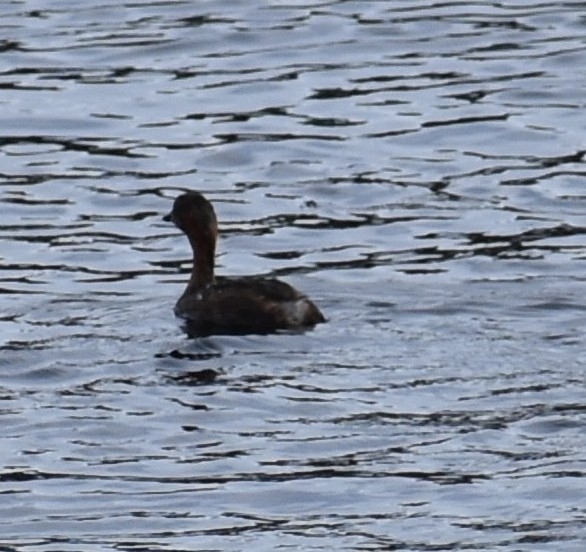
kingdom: Animalia
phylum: Chordata
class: Aves
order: Podicipediformes
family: Podicipedidae
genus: Tachybaptus
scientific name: Tachybaptus ruficollis
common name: Little grebe
